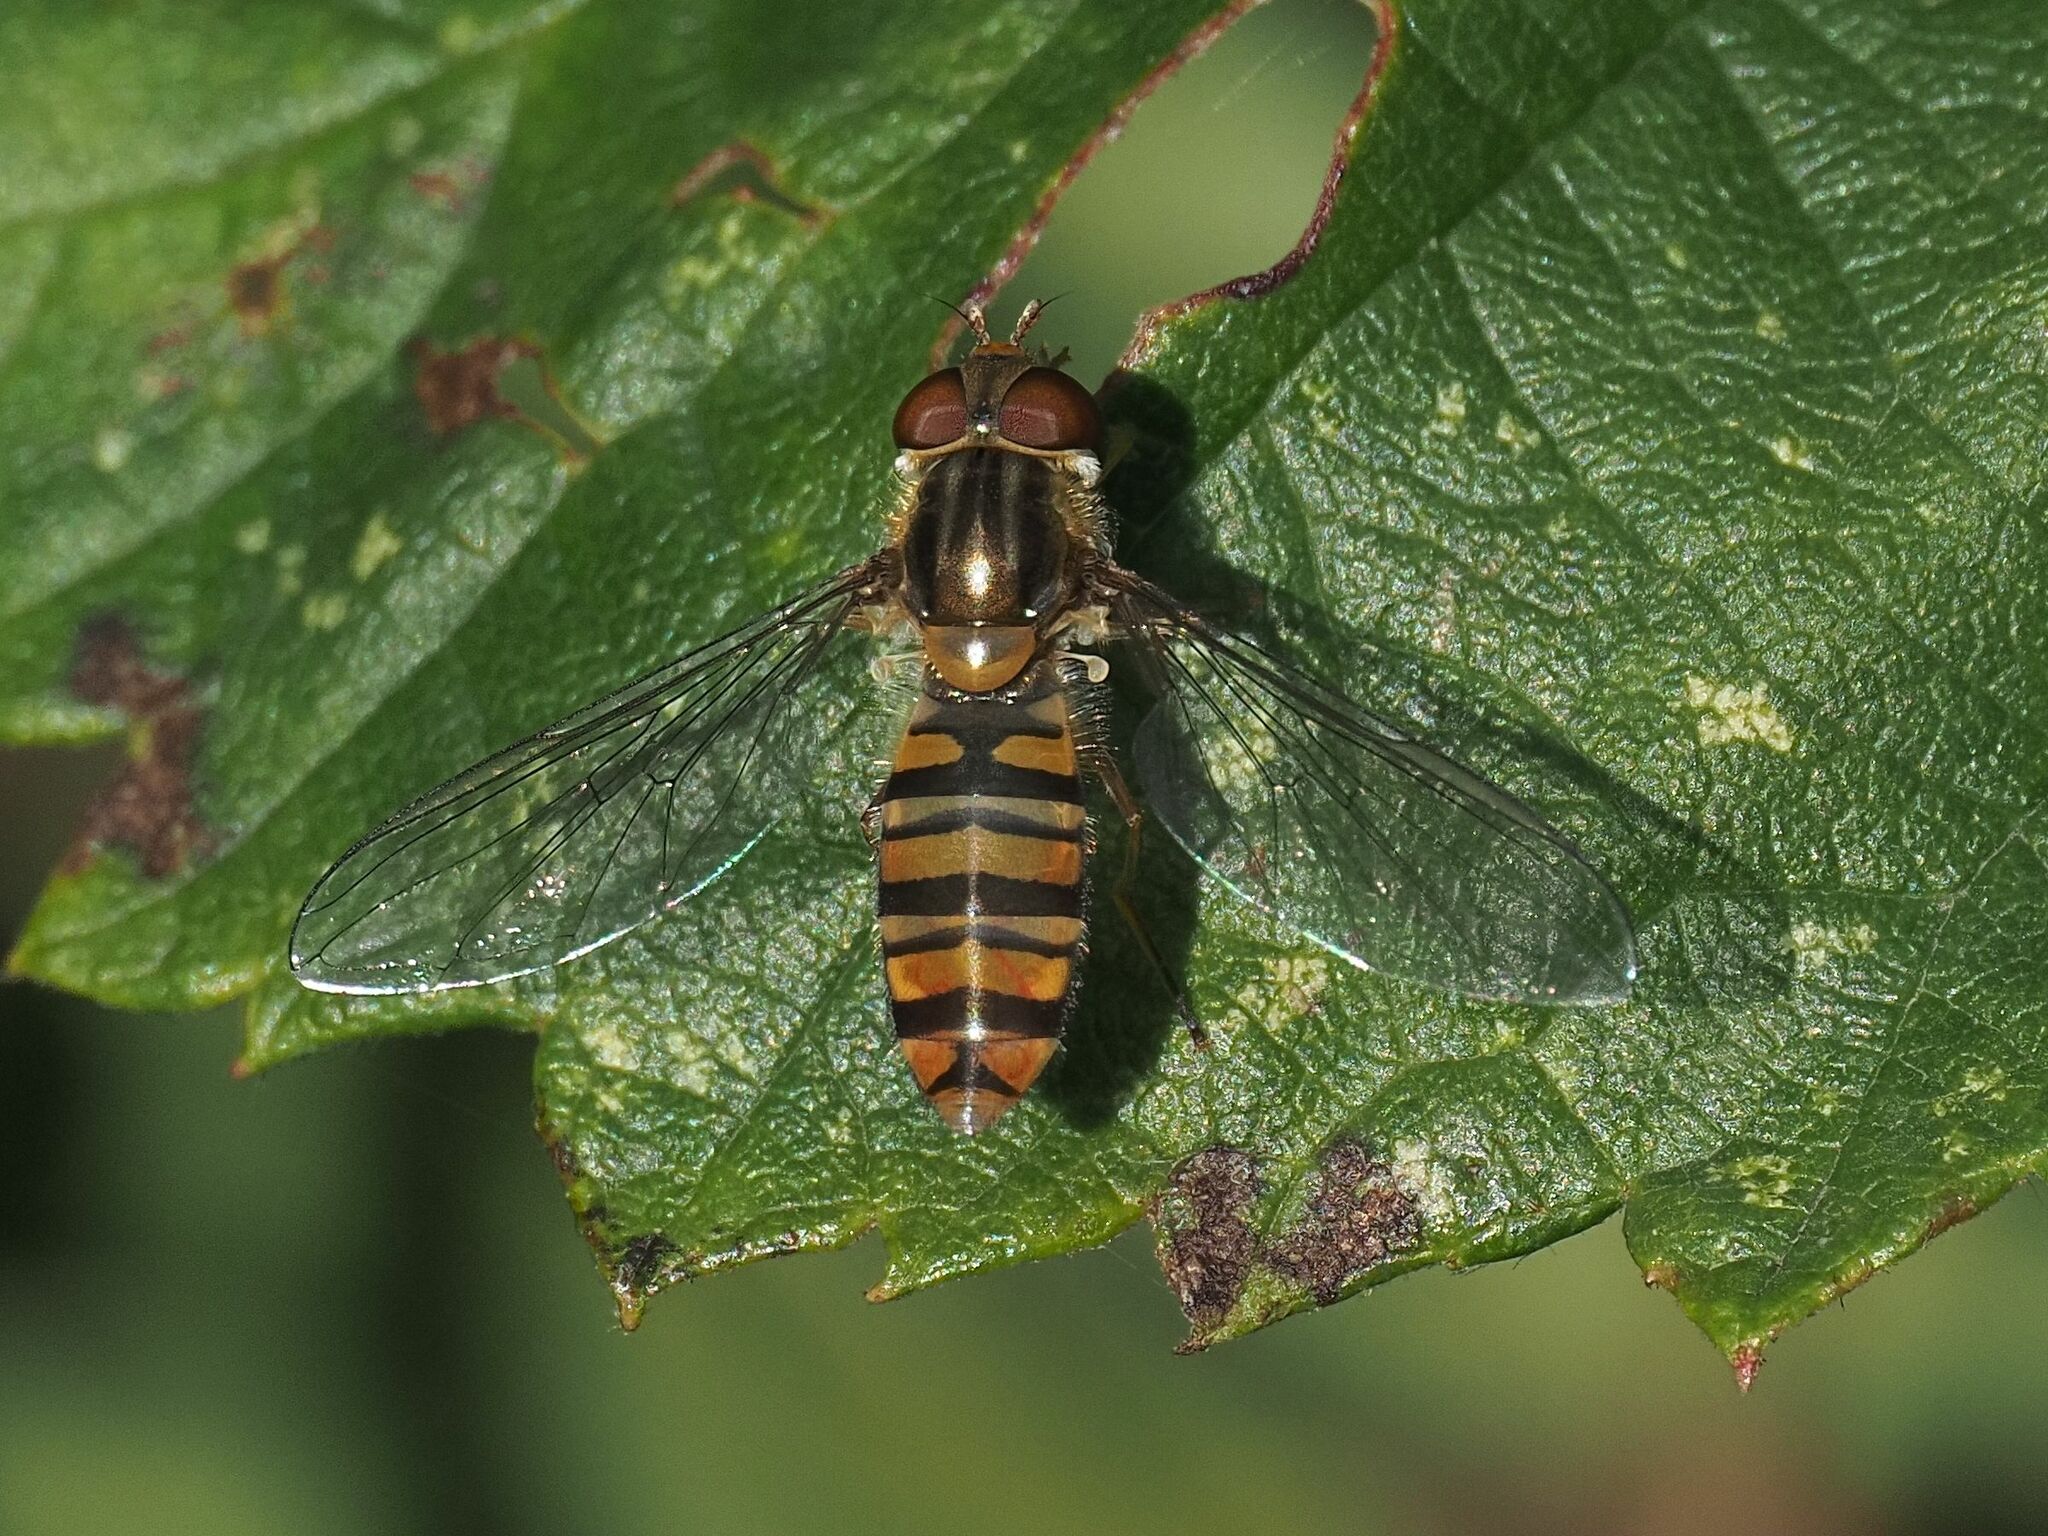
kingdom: Animalia
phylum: Arthropoda
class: Insecta
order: Diptera
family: Syrphidae
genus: Episyrphus
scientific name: Episyrphus balteatus
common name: Marmalade hoverfly
